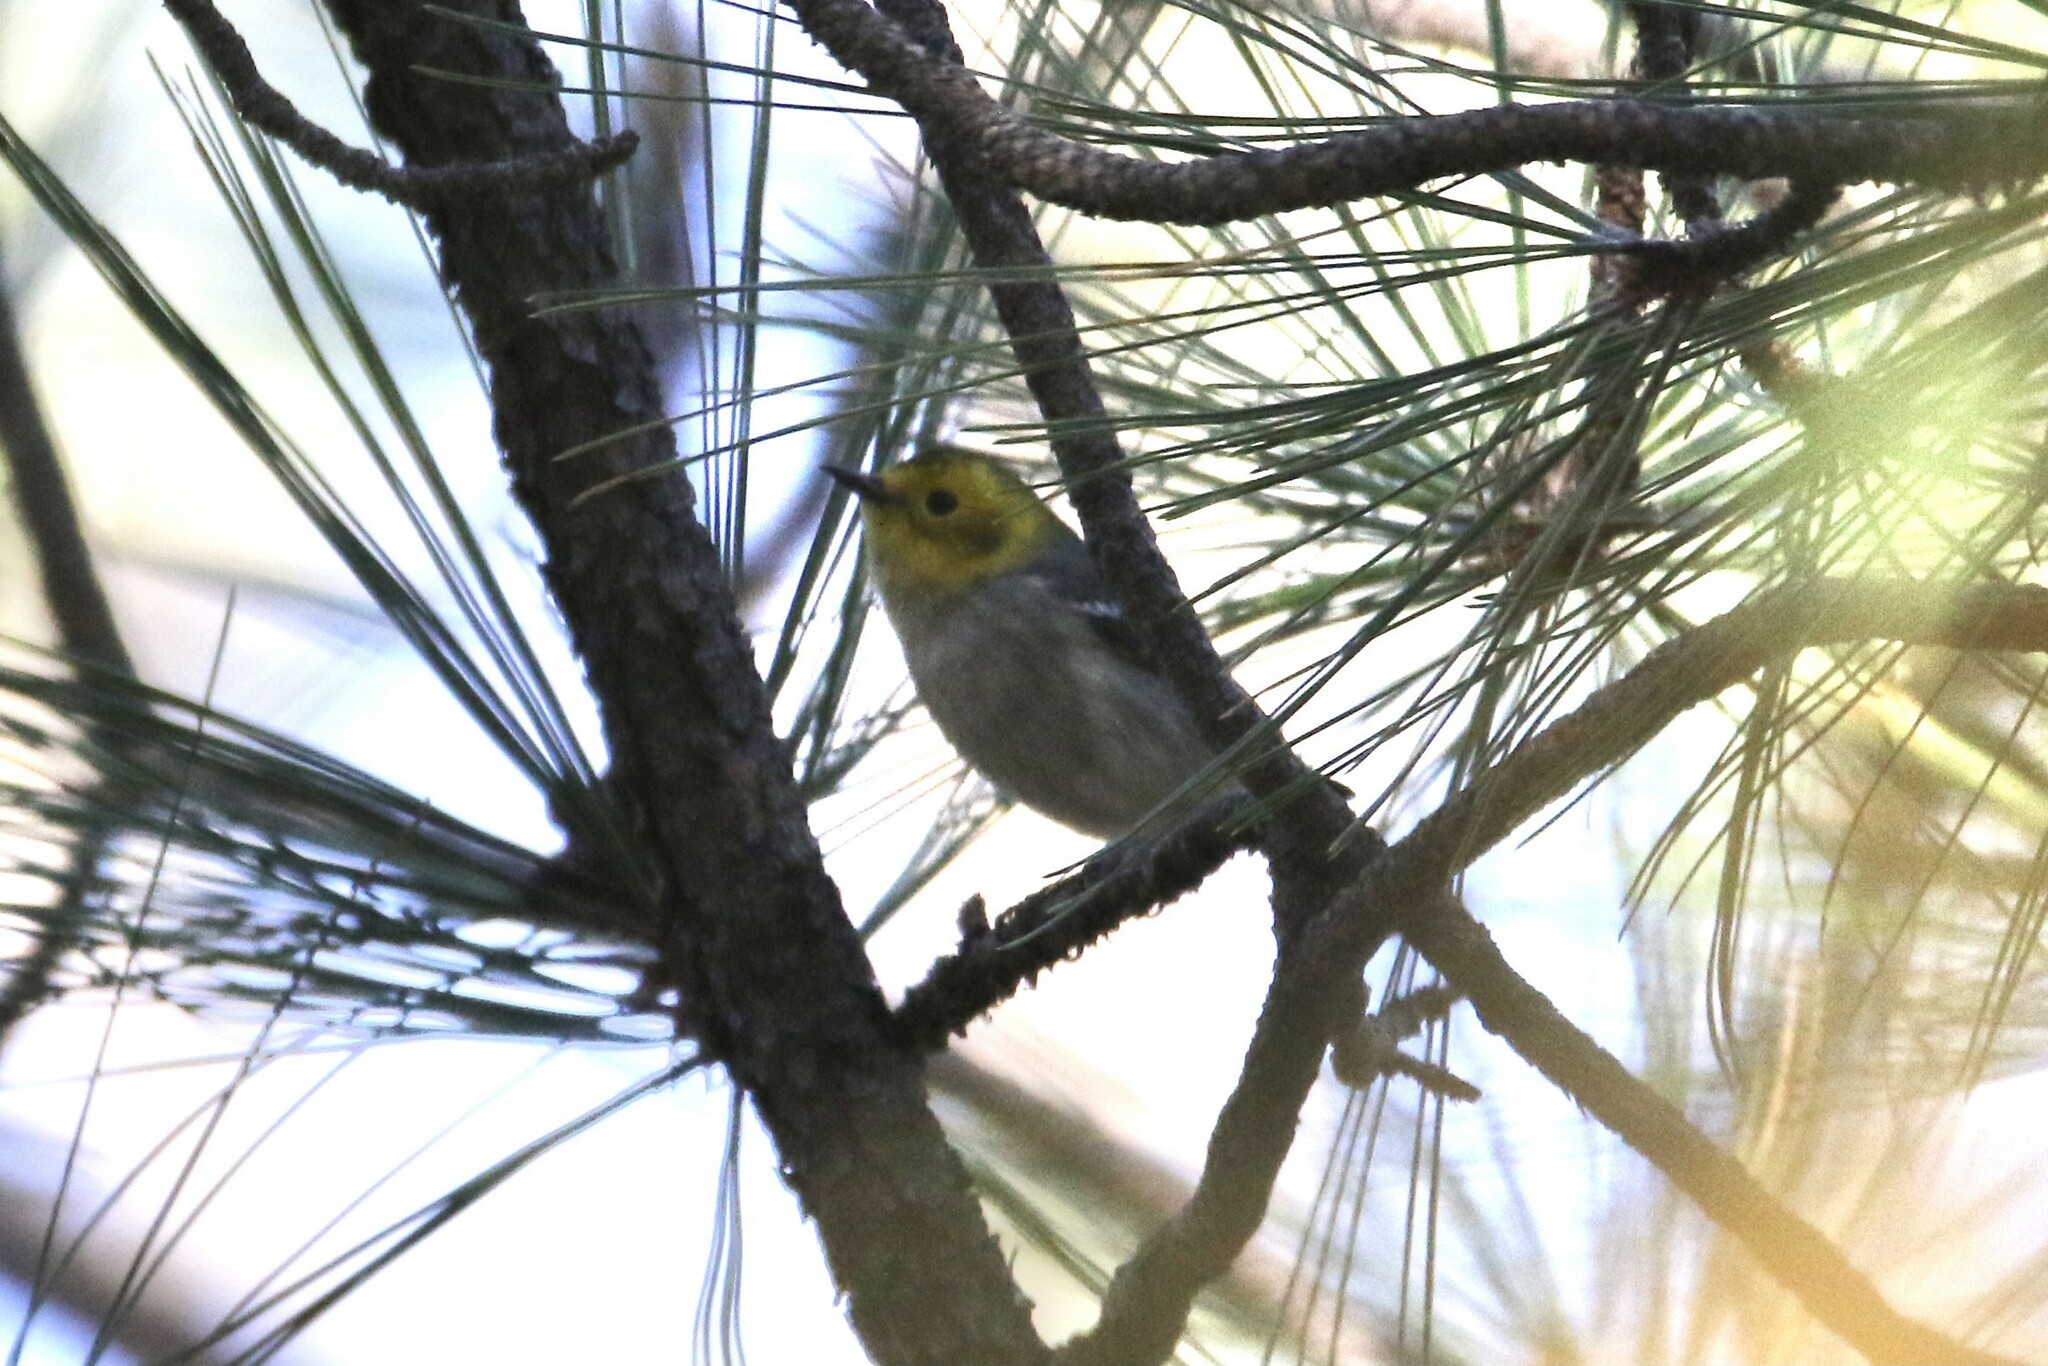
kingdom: Animalia
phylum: Chordata
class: Aves
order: Passeriformes
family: Parulidae
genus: Setophaga
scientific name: Setophaga occidentalis
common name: Hermit warbler
